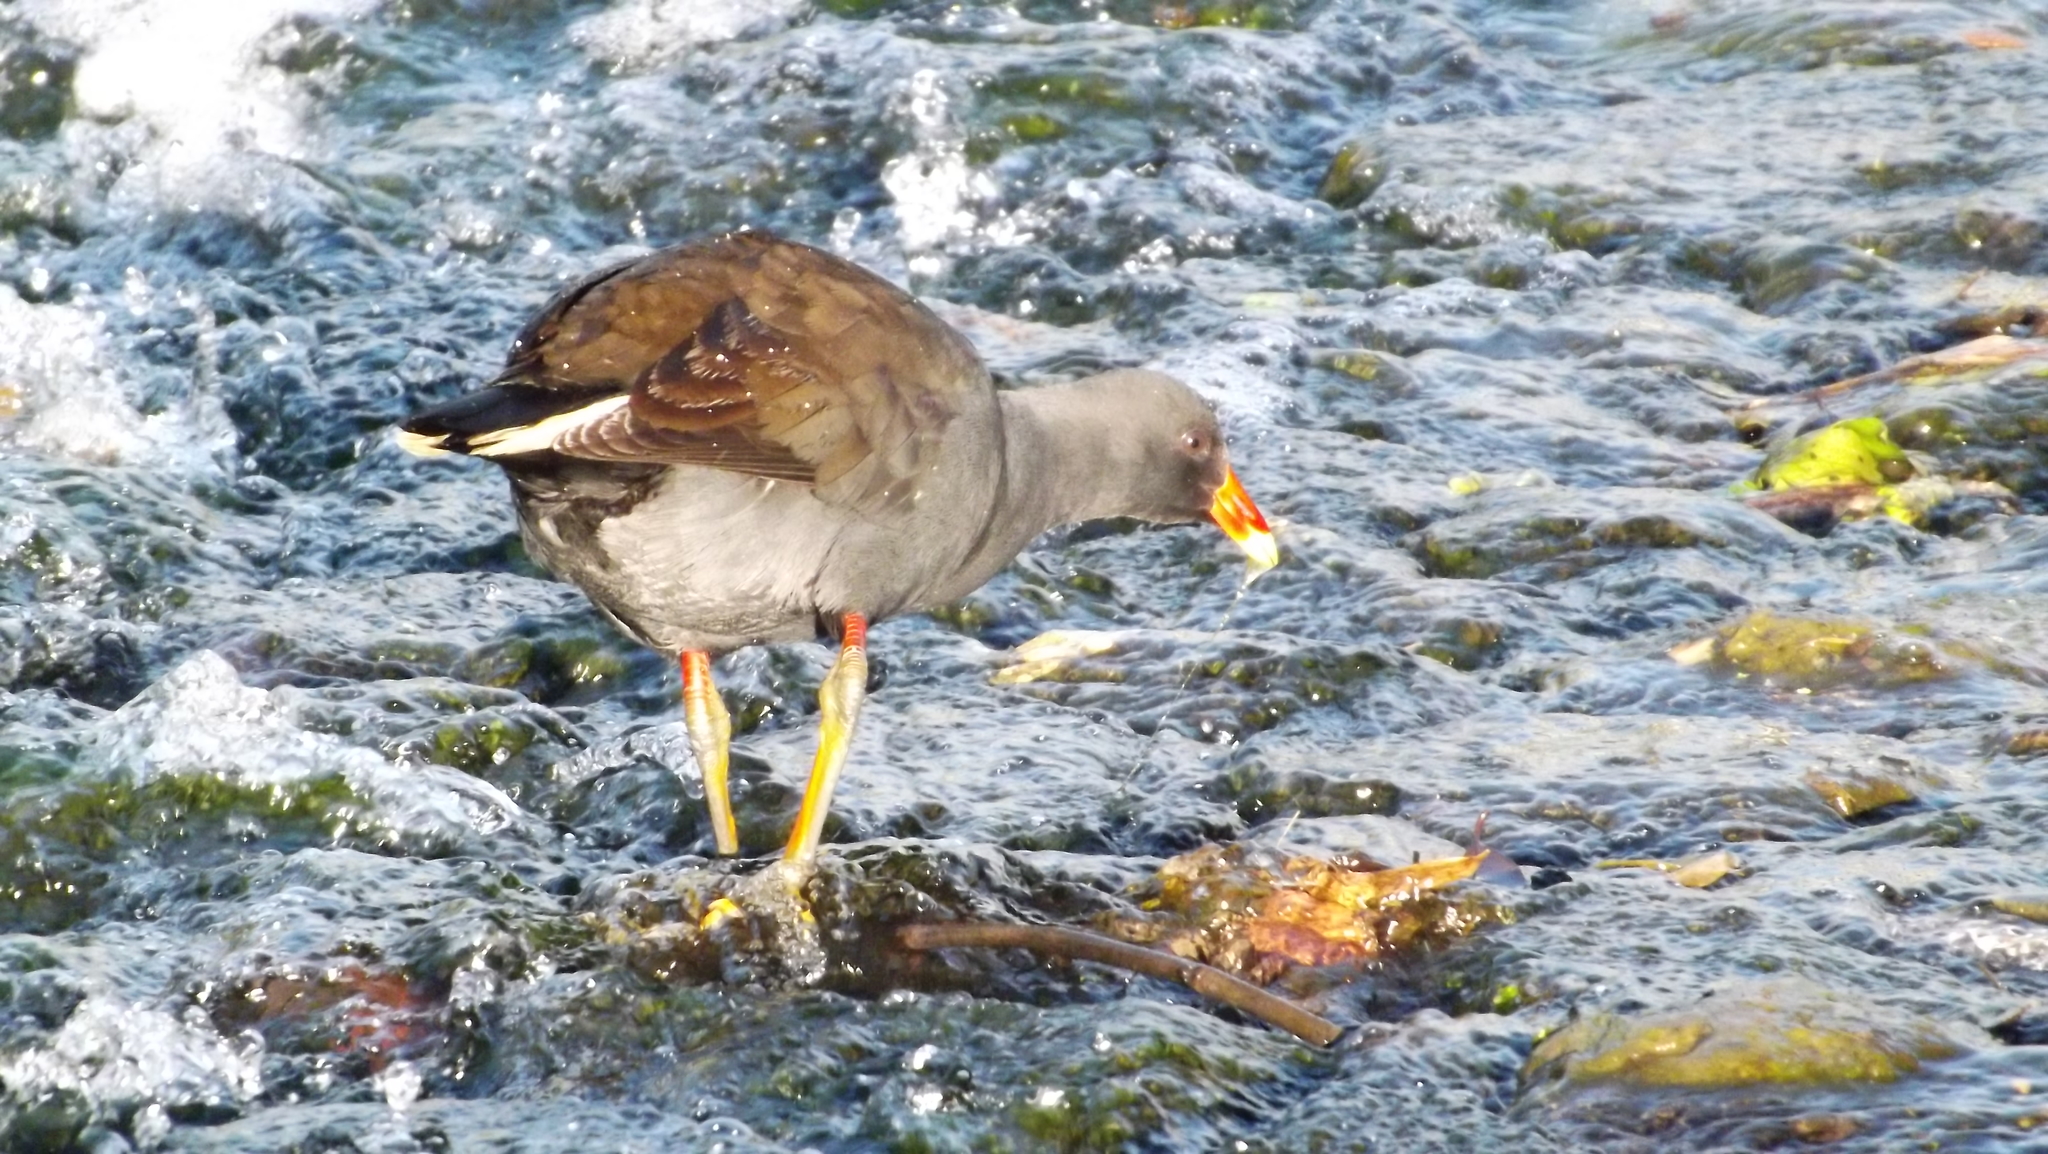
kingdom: Animalia
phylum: Chordata
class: Aves
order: Gruiformes
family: Rallidae
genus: Gallinula
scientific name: Gallinula tenebrosa
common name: Dusky moorhen
